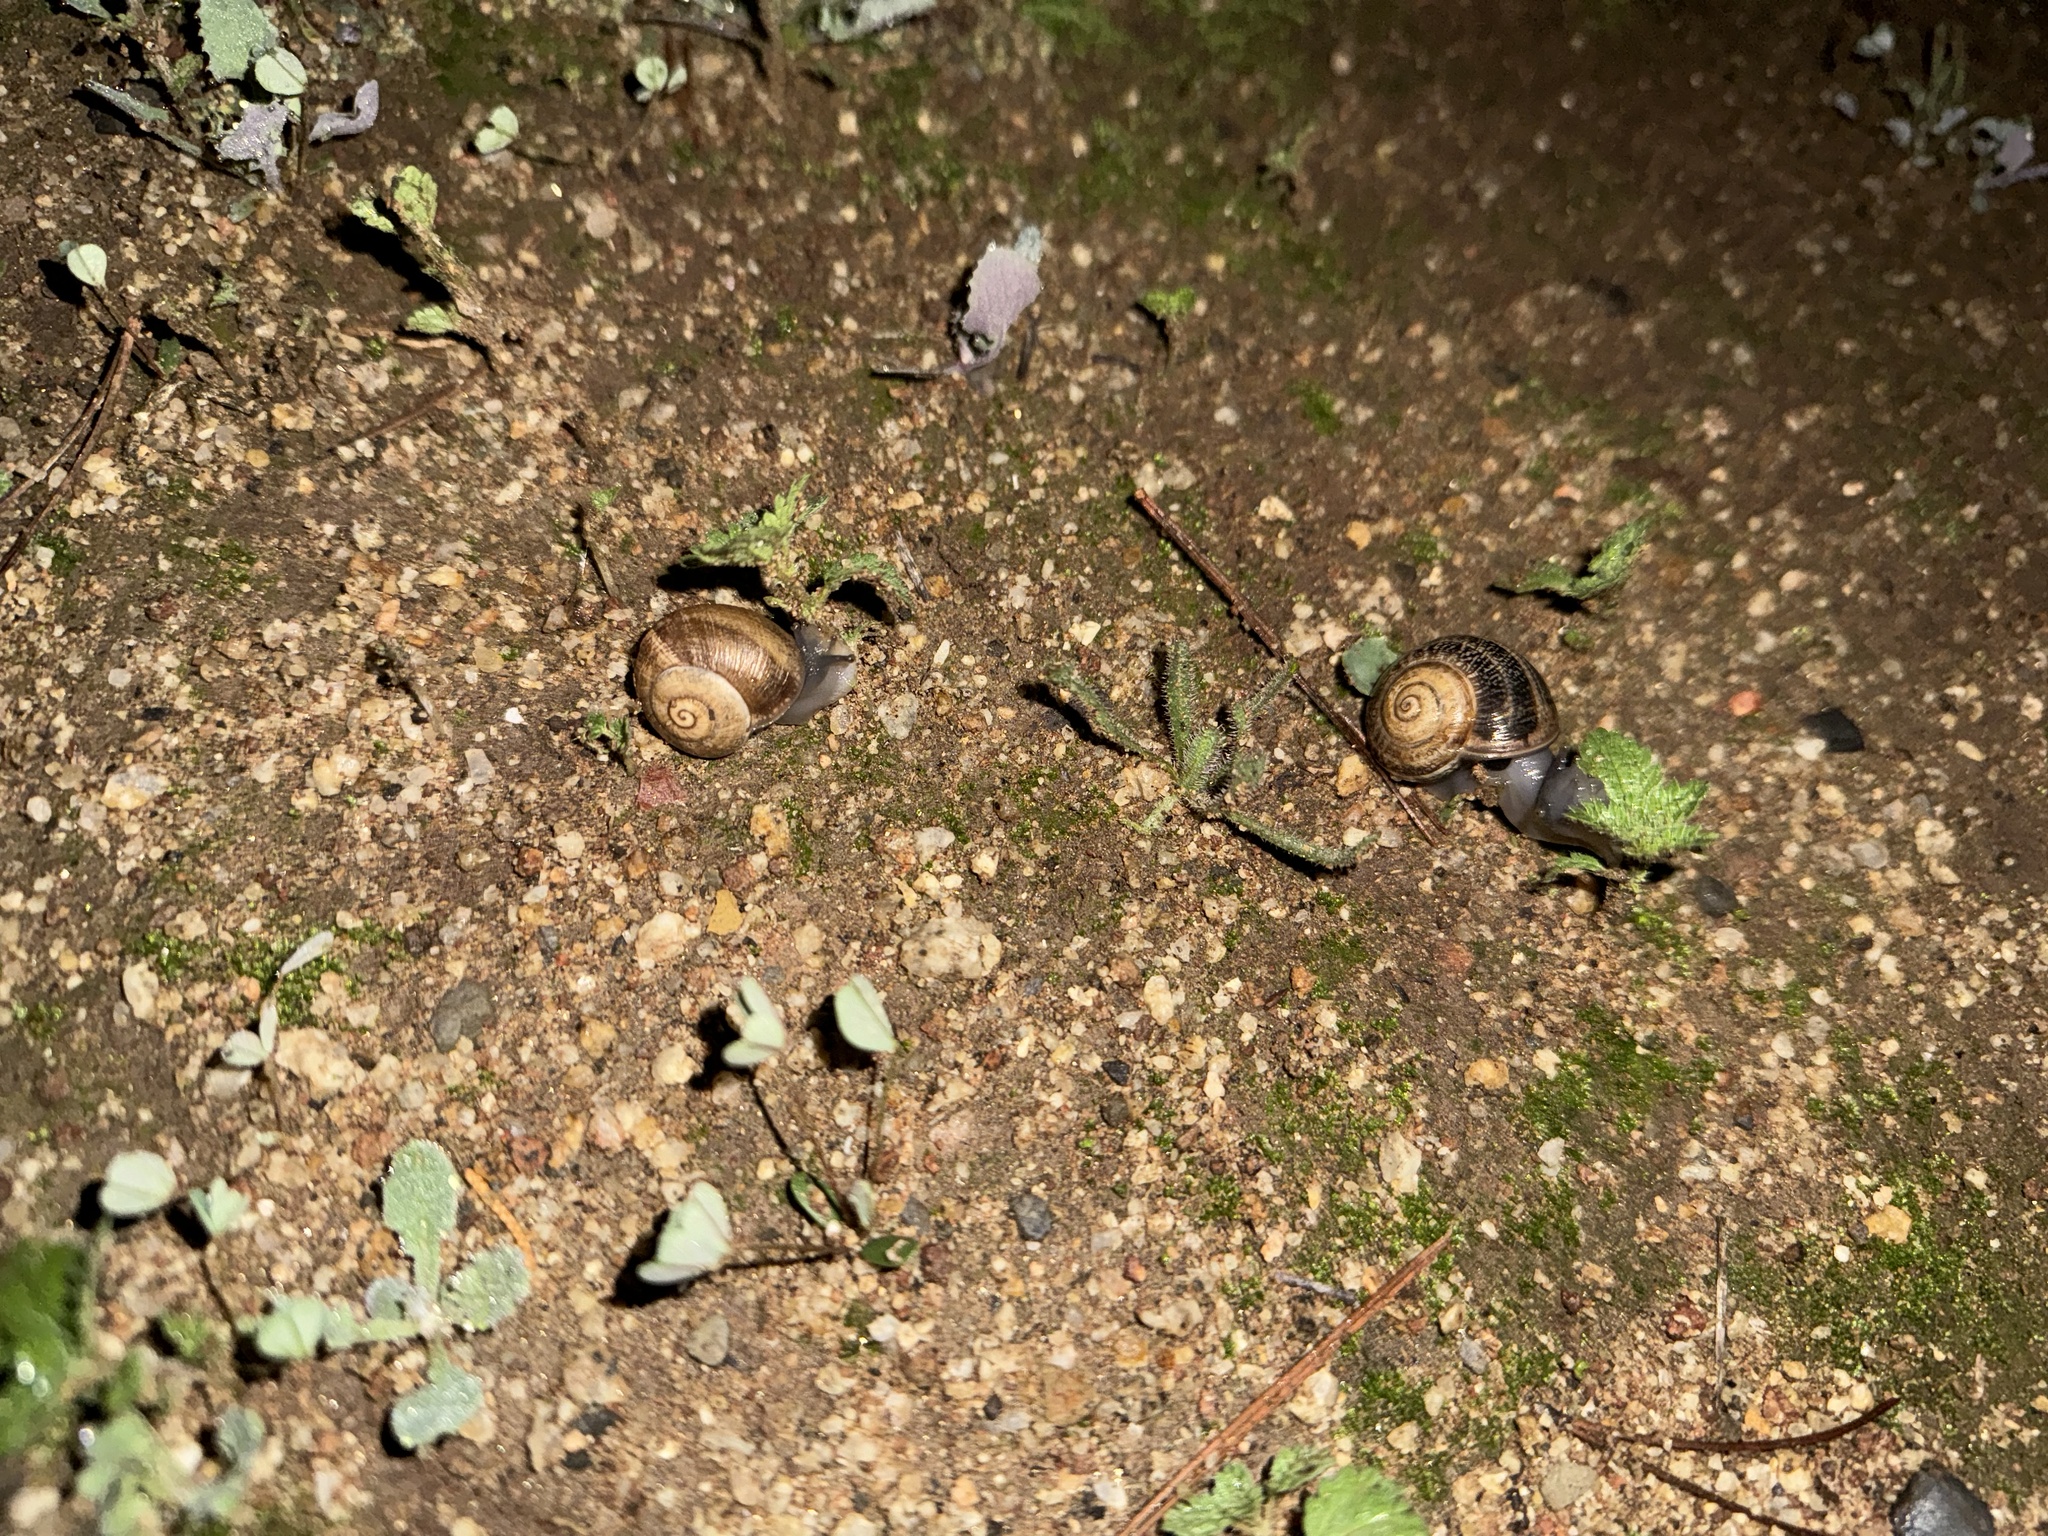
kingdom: Animalia
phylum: Mollusca
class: Gastropoda
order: Stylommatophora
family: Helicidae
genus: Otala
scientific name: Otala lactea
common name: Milk snail
